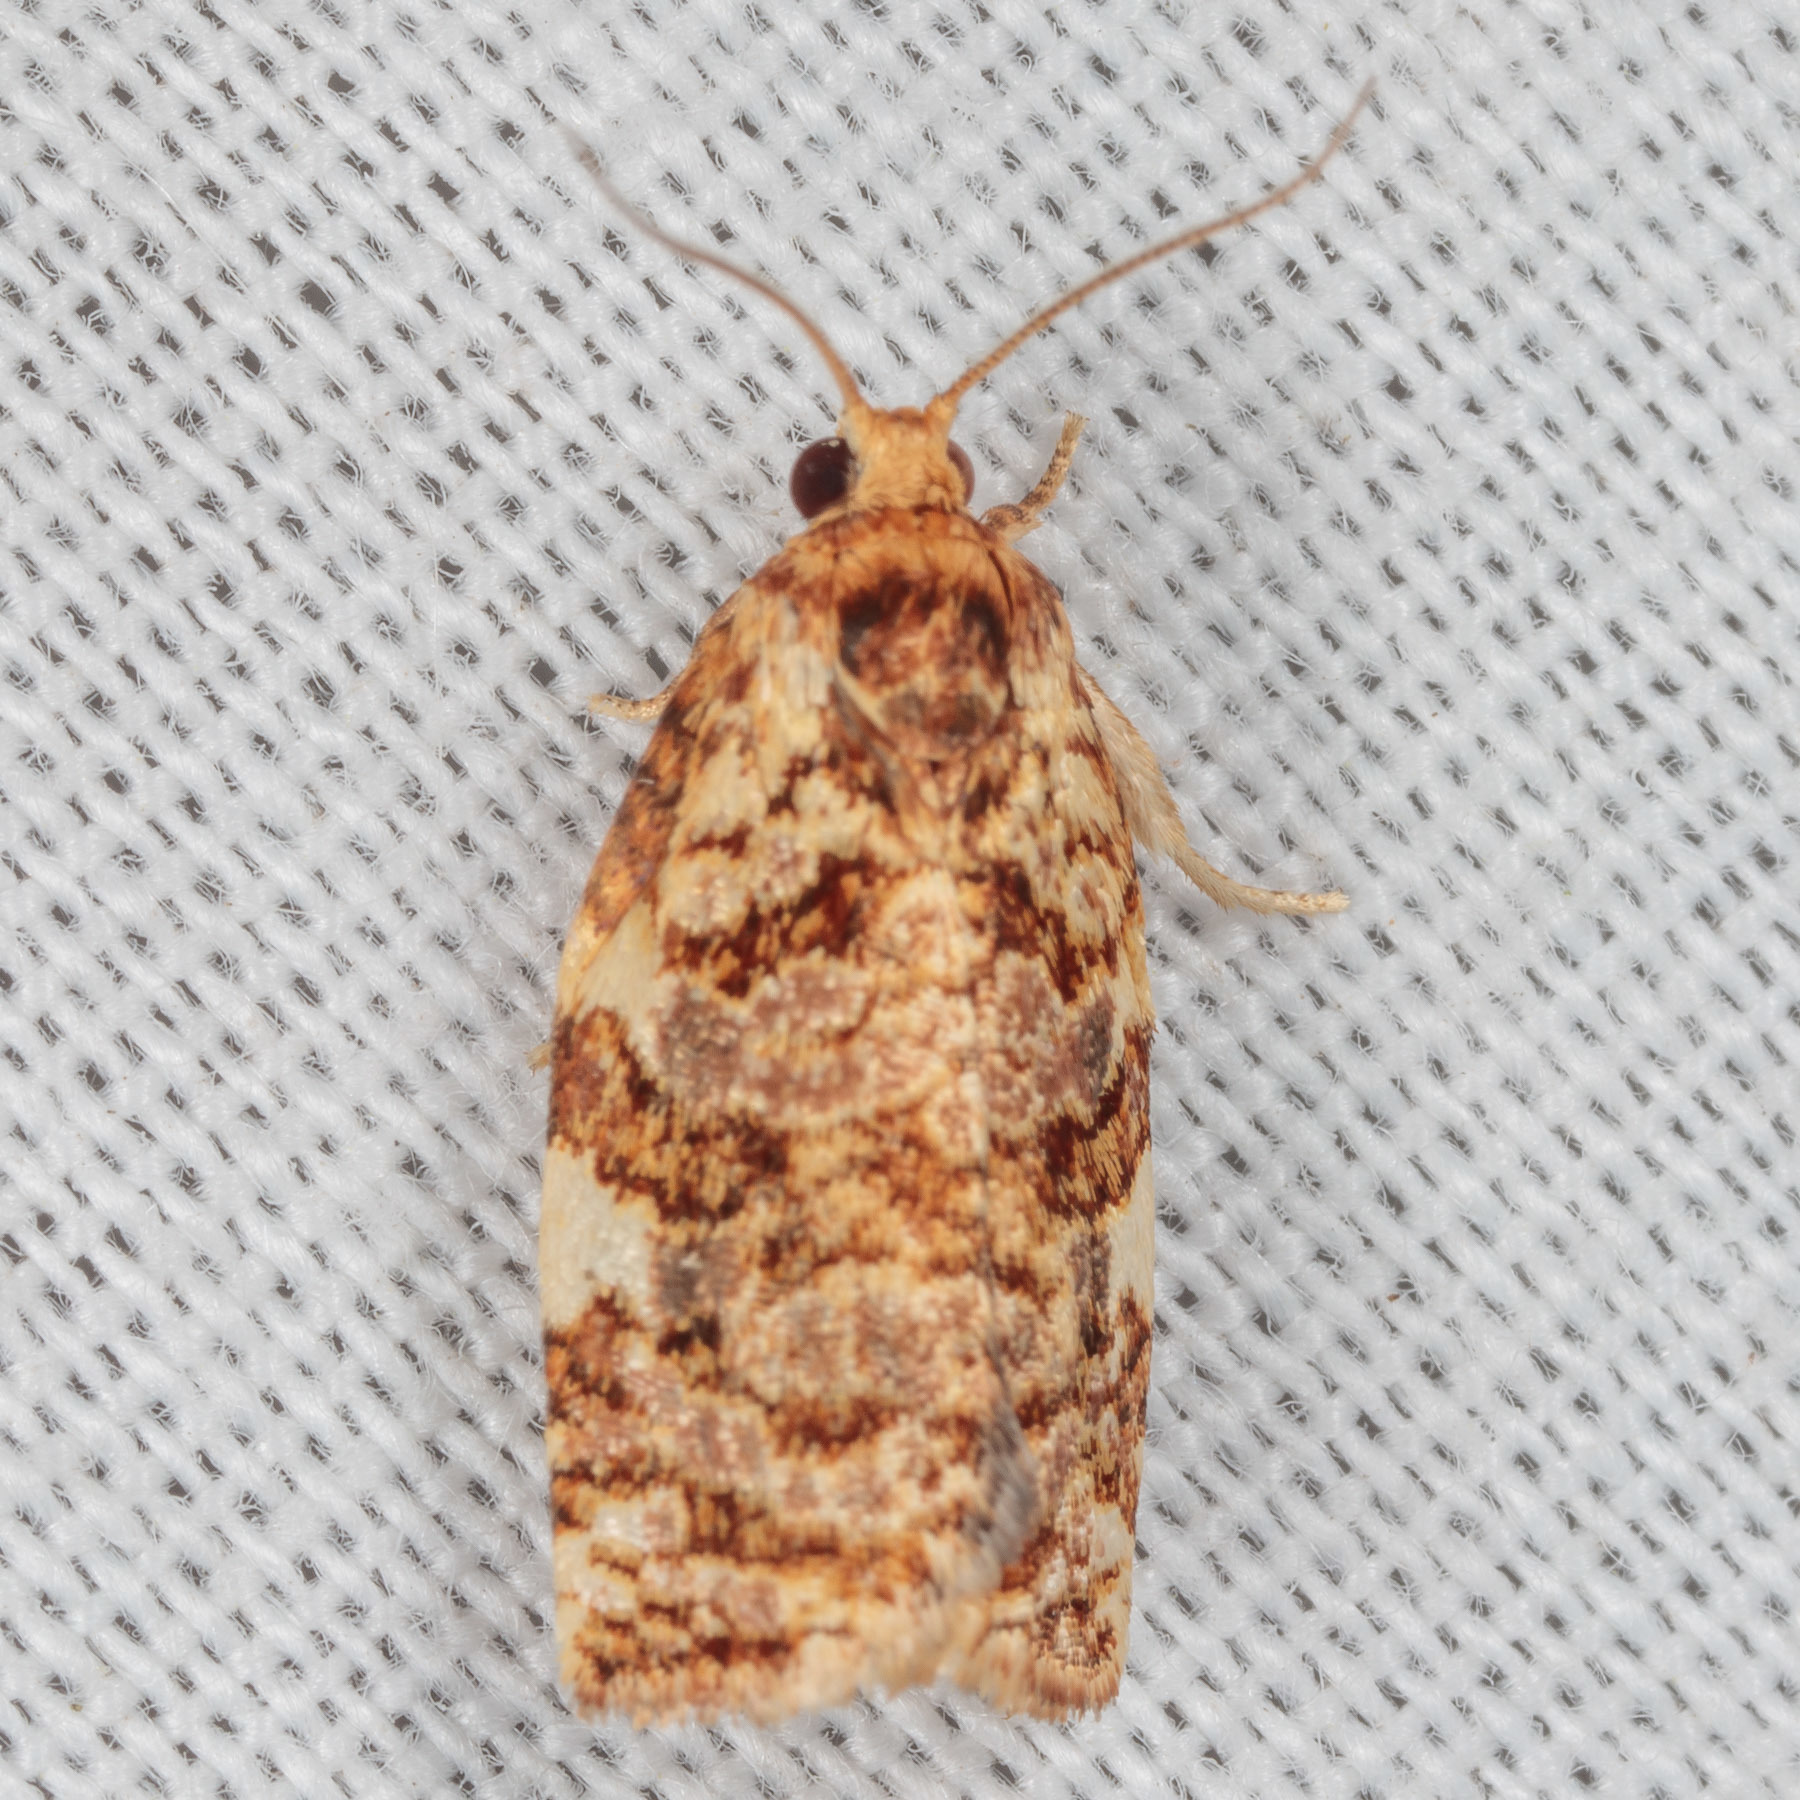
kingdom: Animalia
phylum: Arthropoda
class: Insecta
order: Lepidoptera
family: Tortricidae
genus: Archips
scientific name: Archips argyrospila
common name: Fruit-tree leafroller moth
